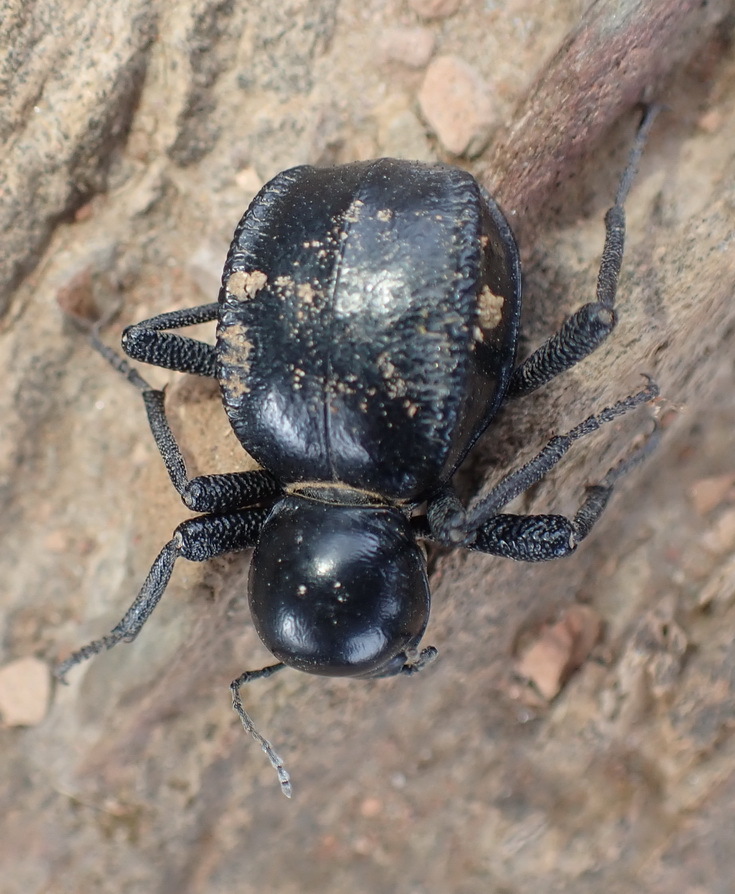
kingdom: Animalia
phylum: Arthropoda
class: Insecta
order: Coleoptera
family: Tenebrionidae
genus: Moluris
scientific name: Moluris gibba
